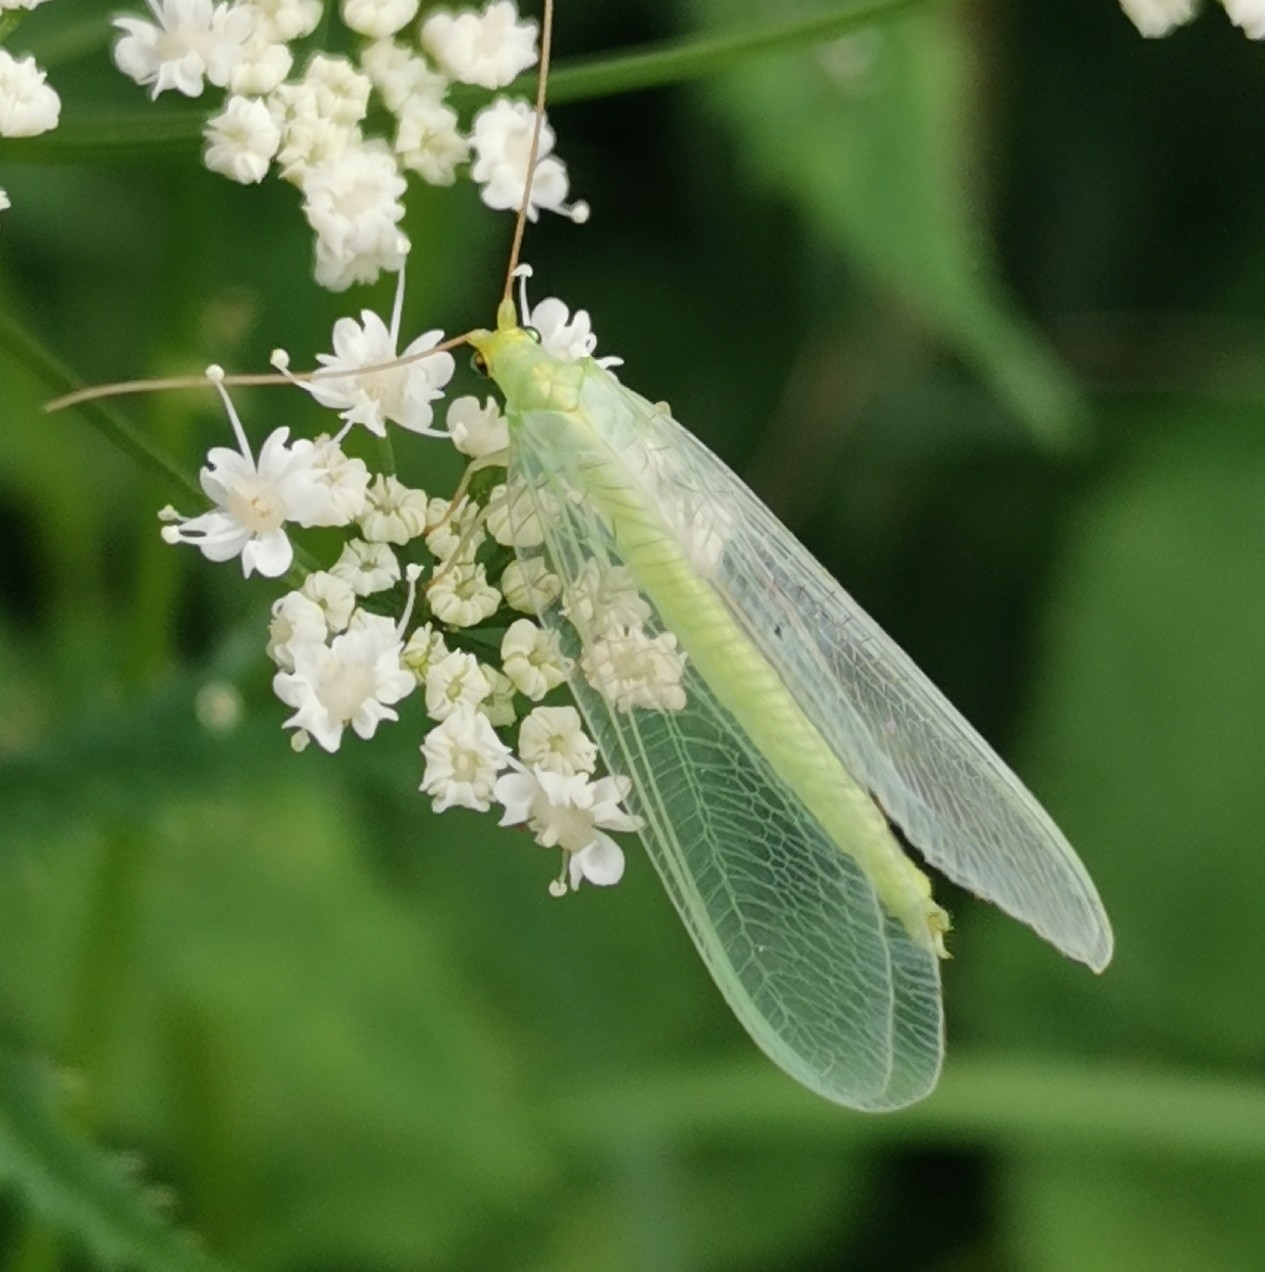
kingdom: Animalia
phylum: Arthropoda
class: Insecta
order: Neuroptera
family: Chrysopidae
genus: Nineta
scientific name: Nineta vittata
